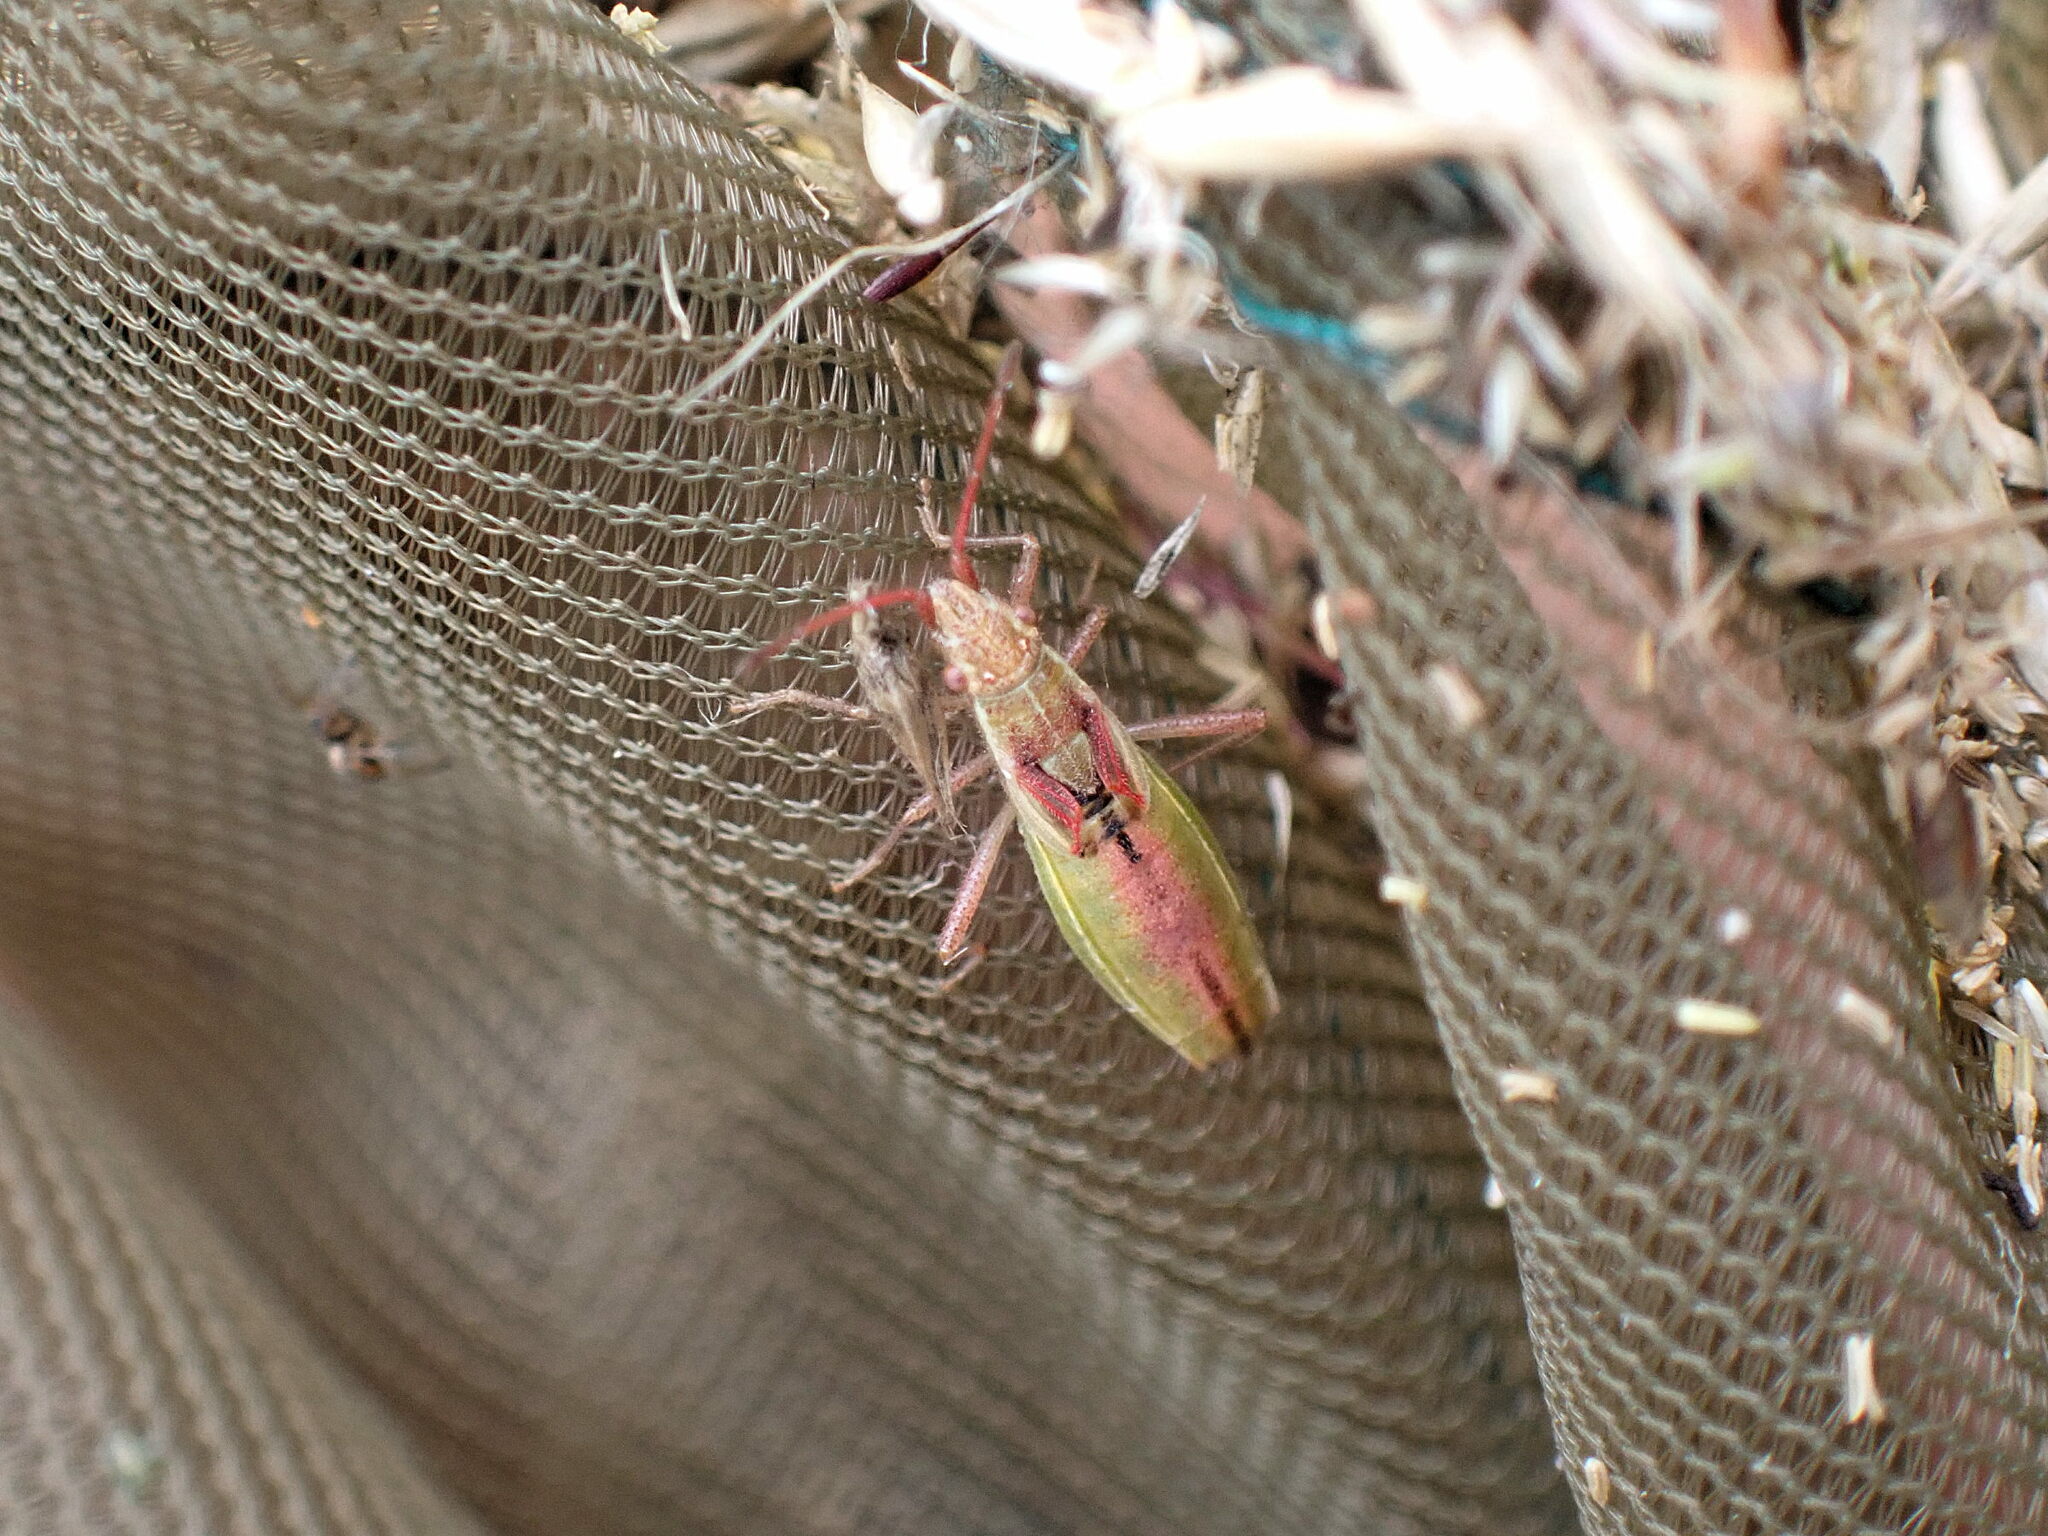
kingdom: Animalia
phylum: Arthropoda
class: Insecta
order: Hemiptera
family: Rhopalidae
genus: Myrmus
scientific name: Myrmus miriformis
